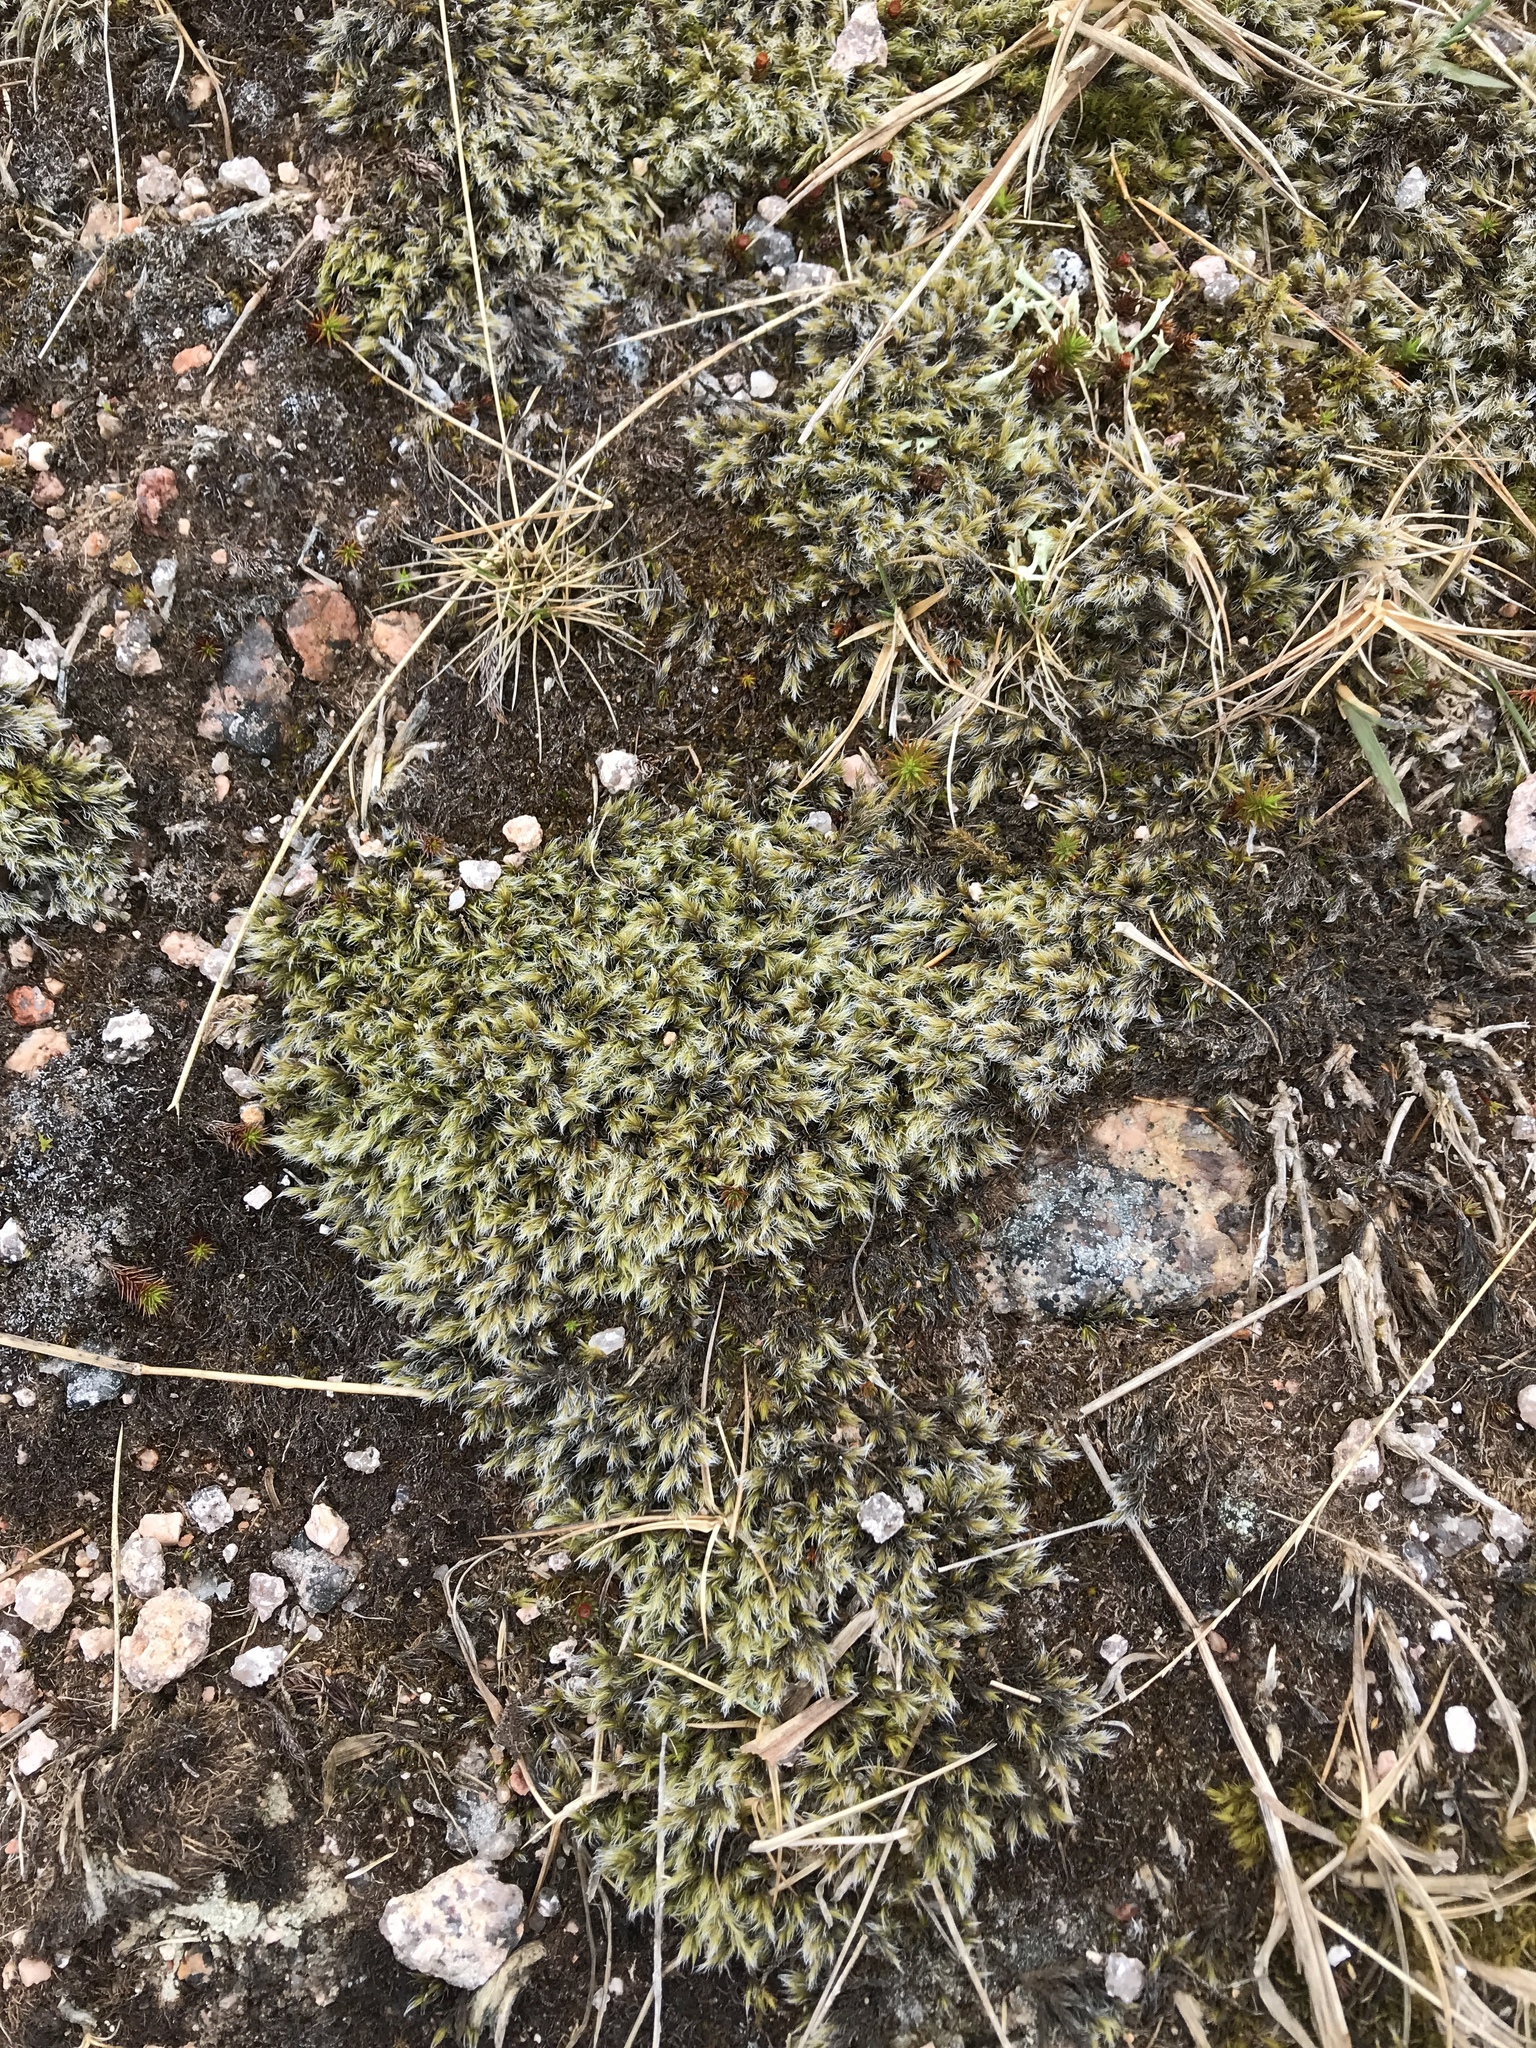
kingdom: Plantae
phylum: Bryophyta
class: Bryopsida
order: Grimmiales
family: Grimmiaceae
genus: Racomitrium
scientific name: Racomitrium lanuginosum
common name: Hoary rock moss
